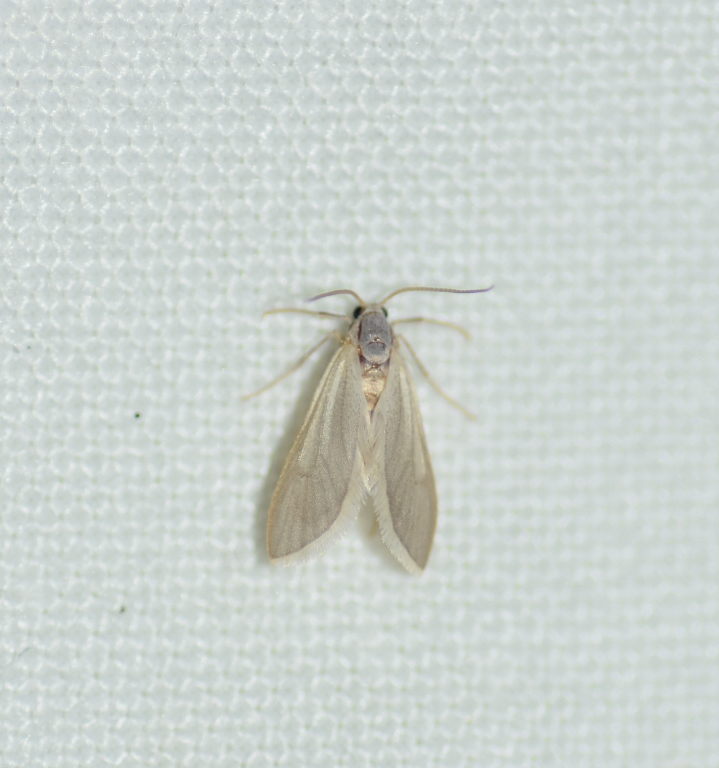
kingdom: Animalia
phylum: Arthropoda
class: Insecta
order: Lepidoptera
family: Crambidae
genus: Acentria
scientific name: Acentria ephemerella
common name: European water moth
